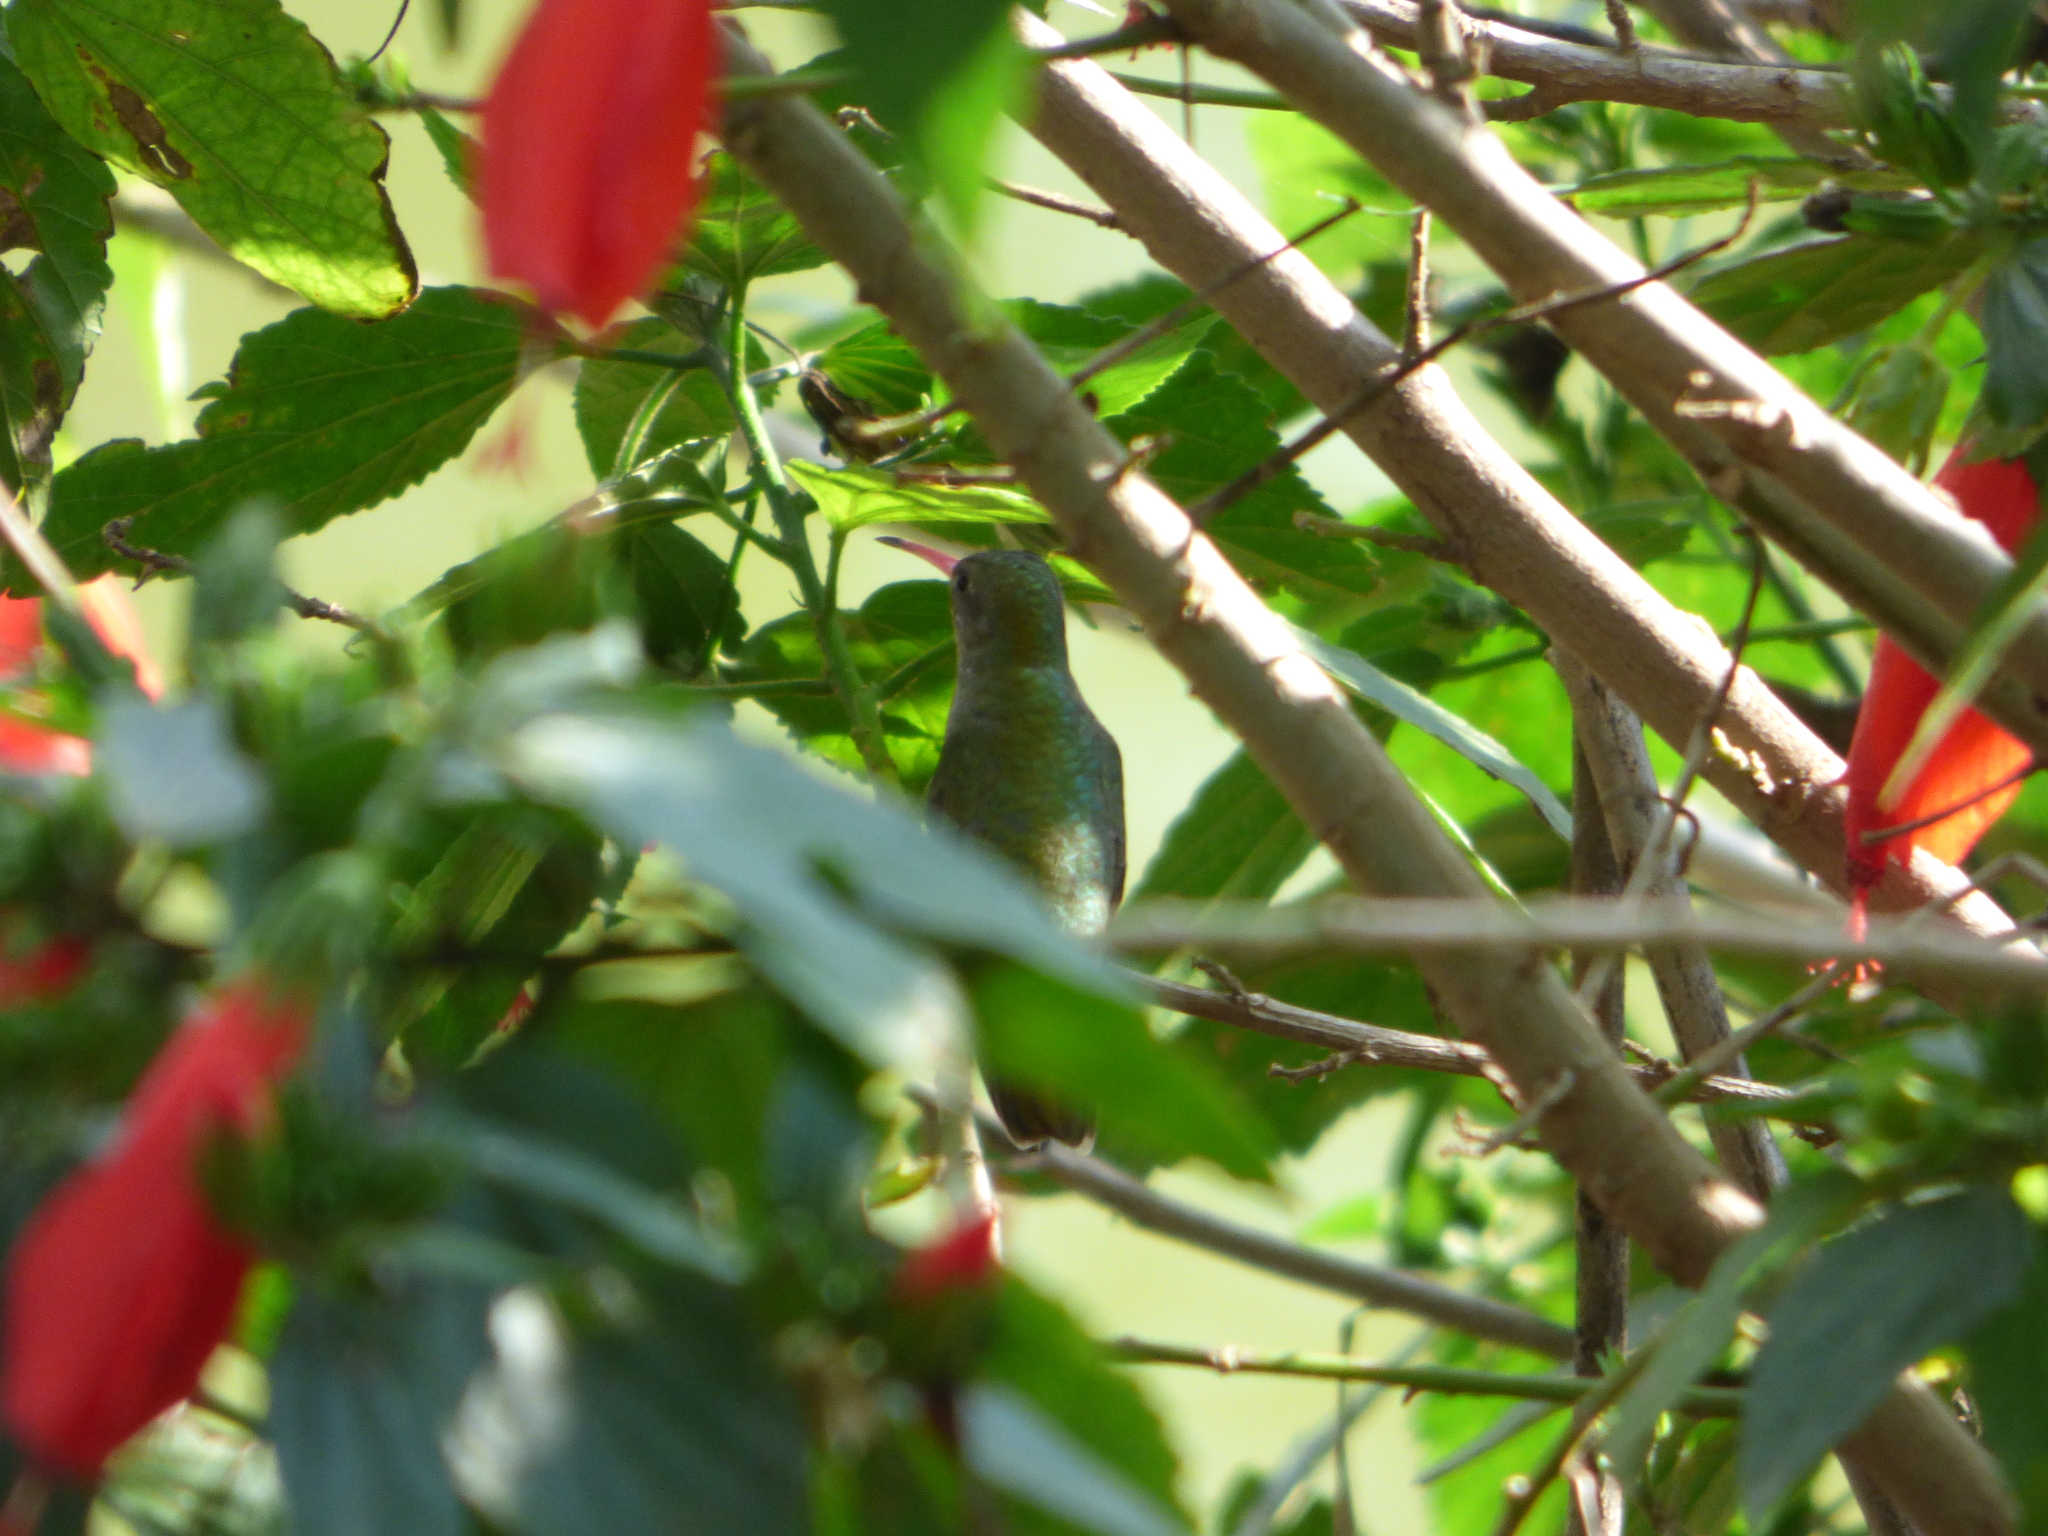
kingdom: Animalia
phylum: Chordata
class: Aves
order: Apodiformes
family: Trochilidae
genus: Hylocharis
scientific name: Hylocharis chrysura
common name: Gilded sapphire
